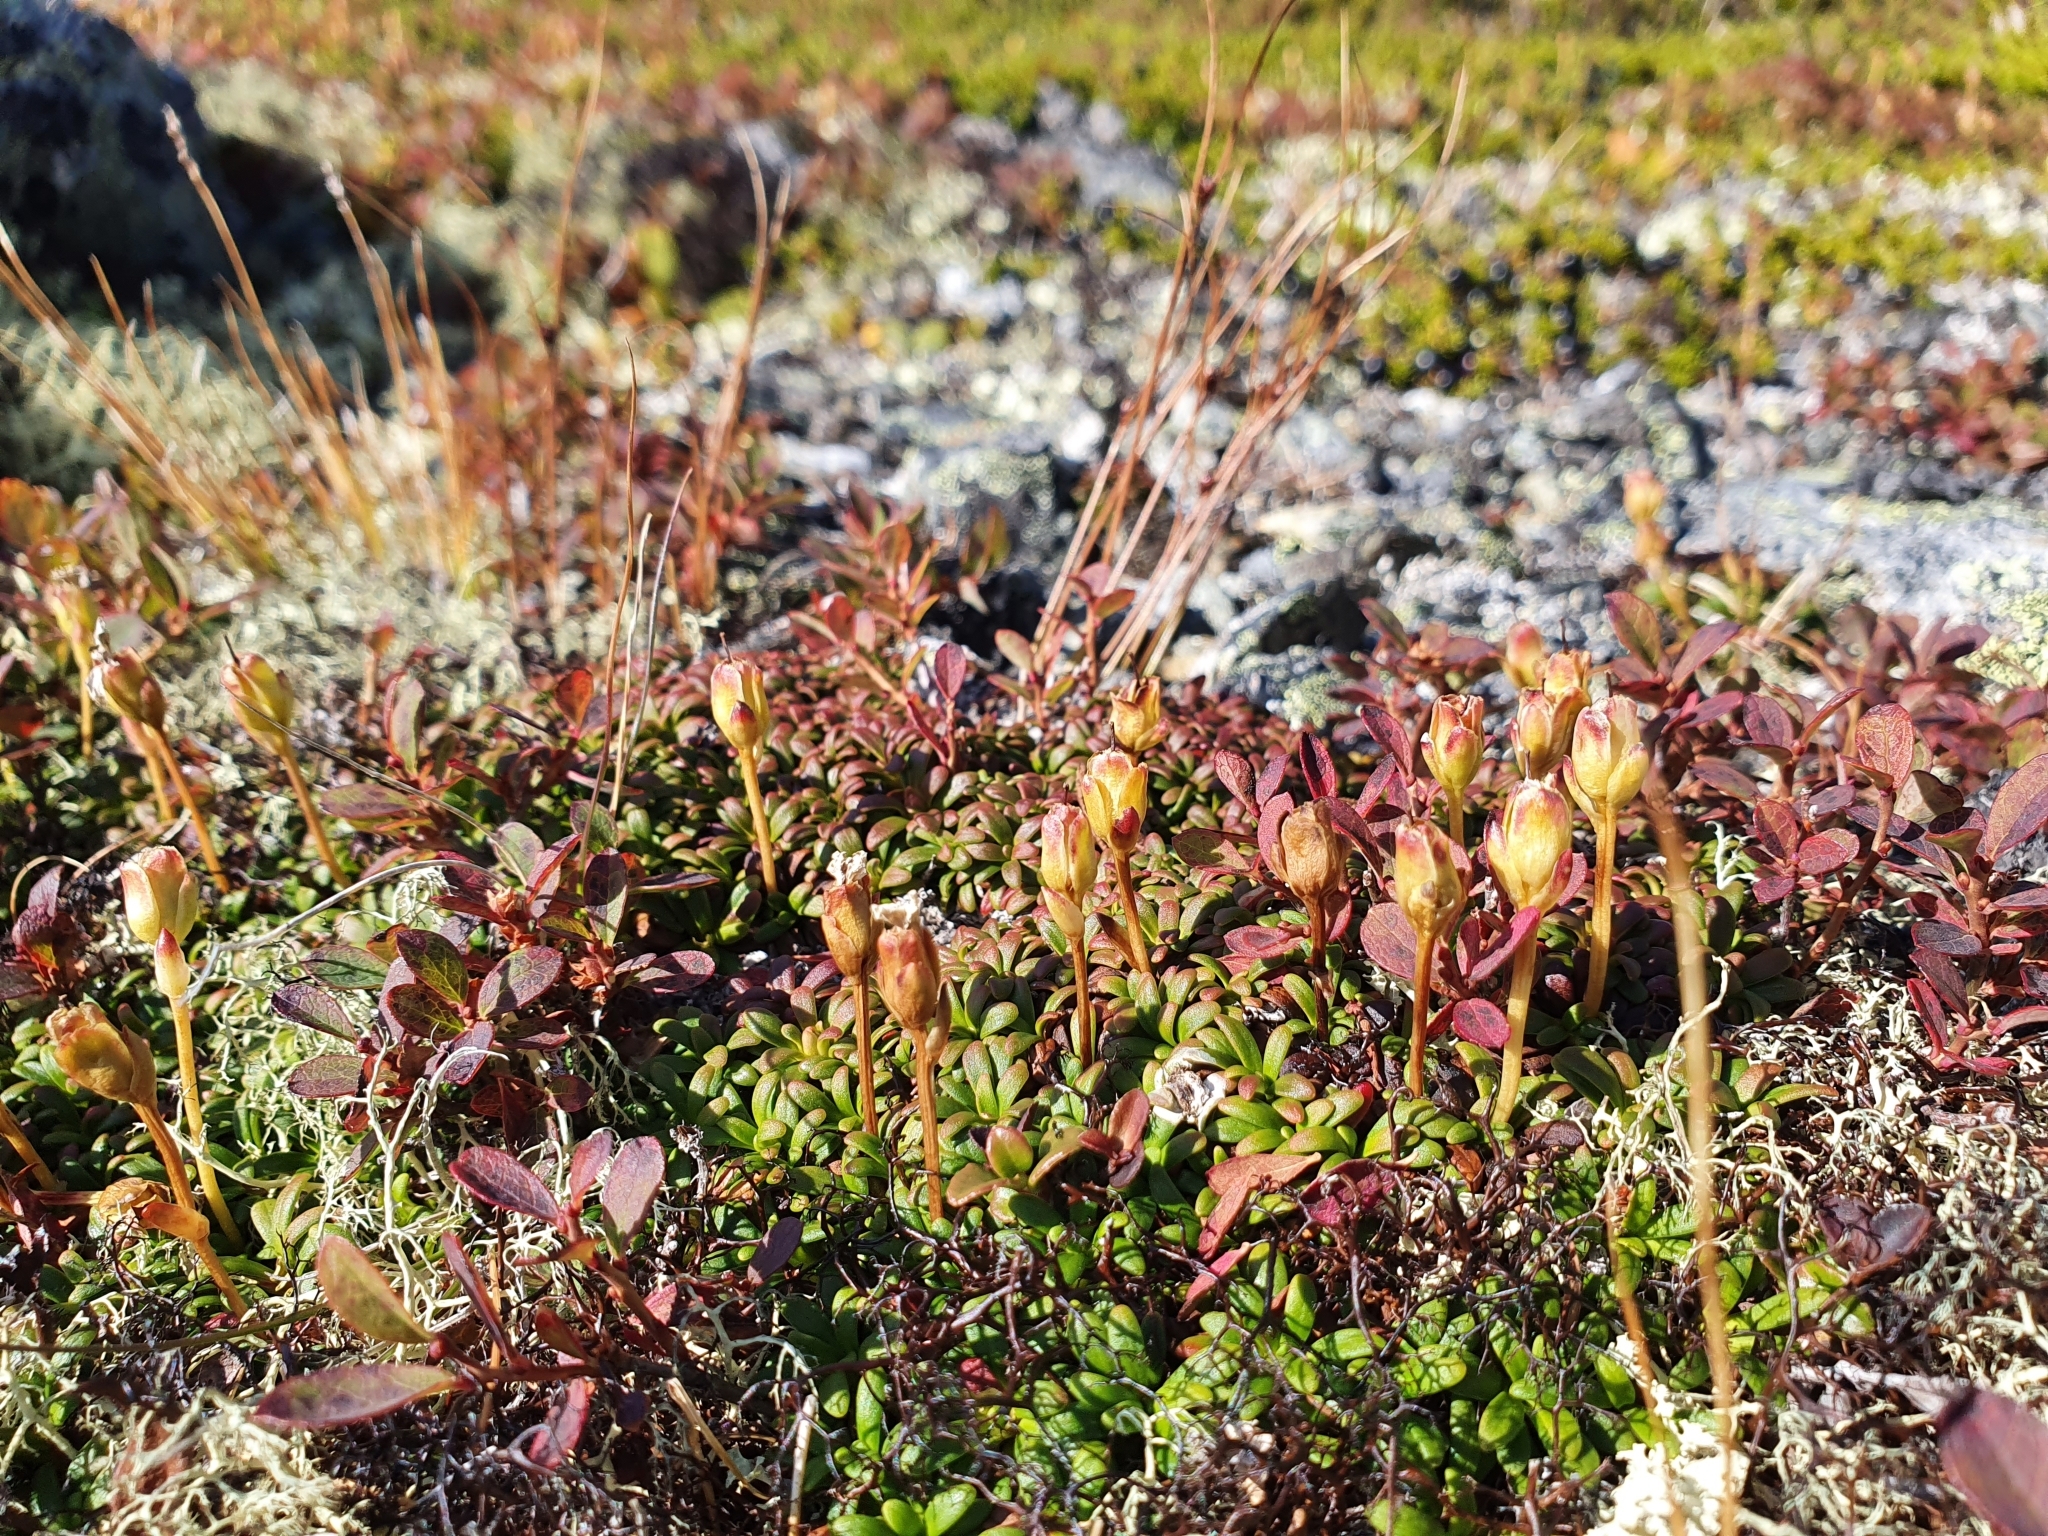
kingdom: Plantae
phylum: Tracheophyta
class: Magnoliopsida
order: Ericales
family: Diapensiaceae
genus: Diapensia
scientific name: Diapensia lapponica
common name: Diapensia
